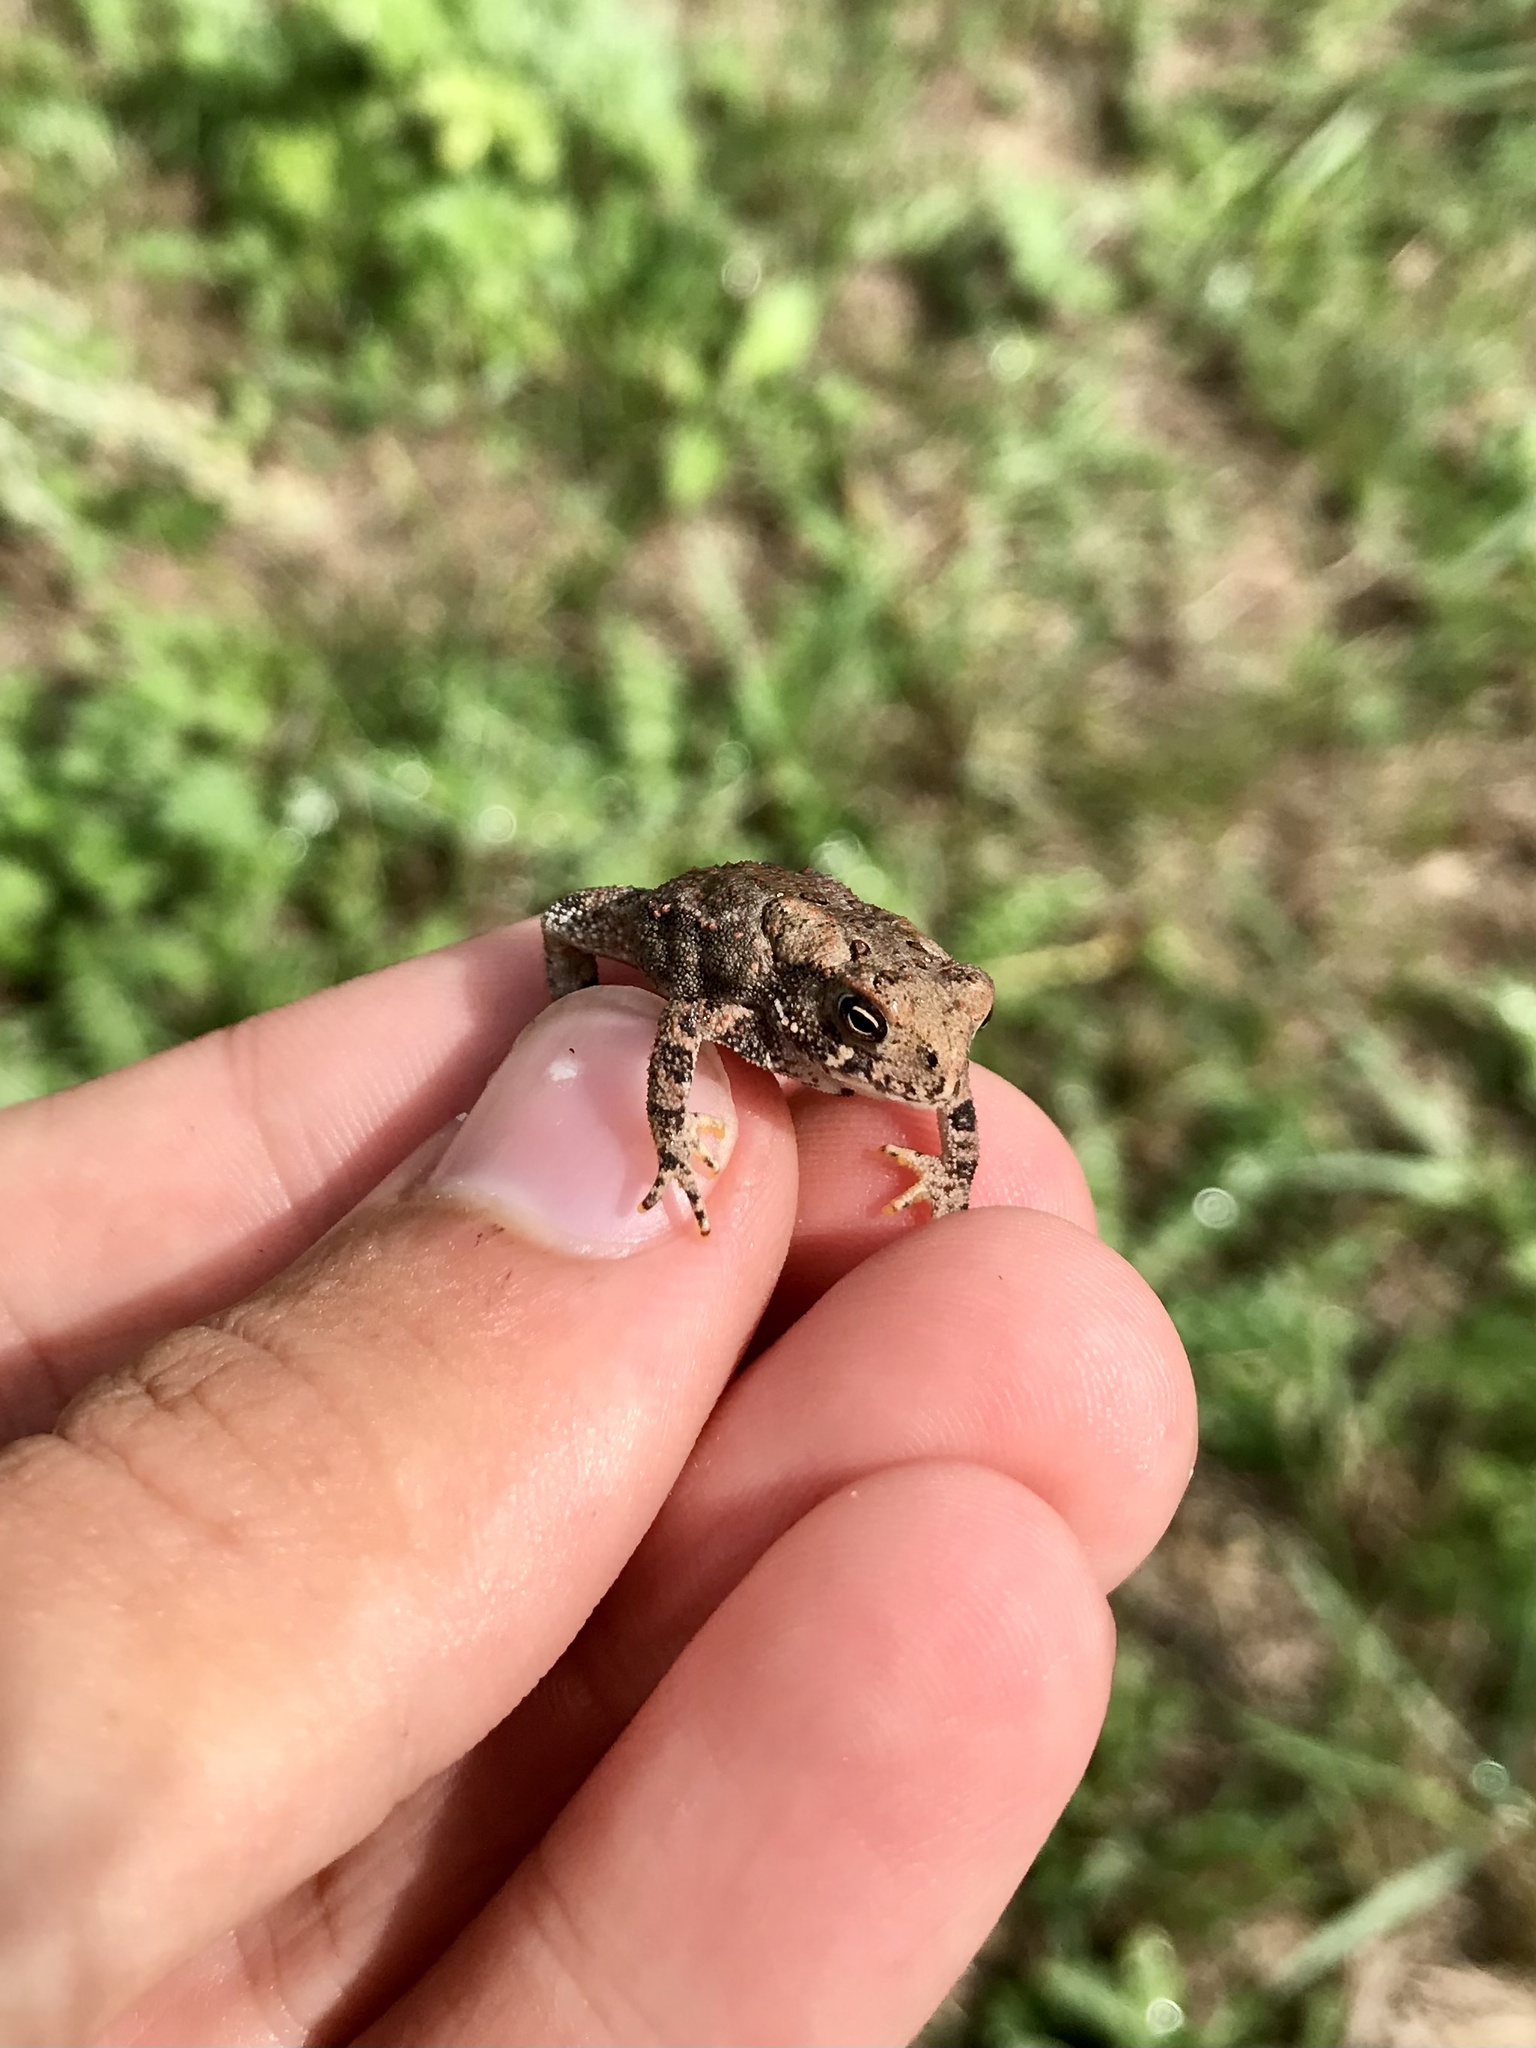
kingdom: Animalia
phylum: Chordata
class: Amphibia
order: Anura
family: Bufonidae
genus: Anaxyrus
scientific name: Anaxyrus americanus
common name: American toad
